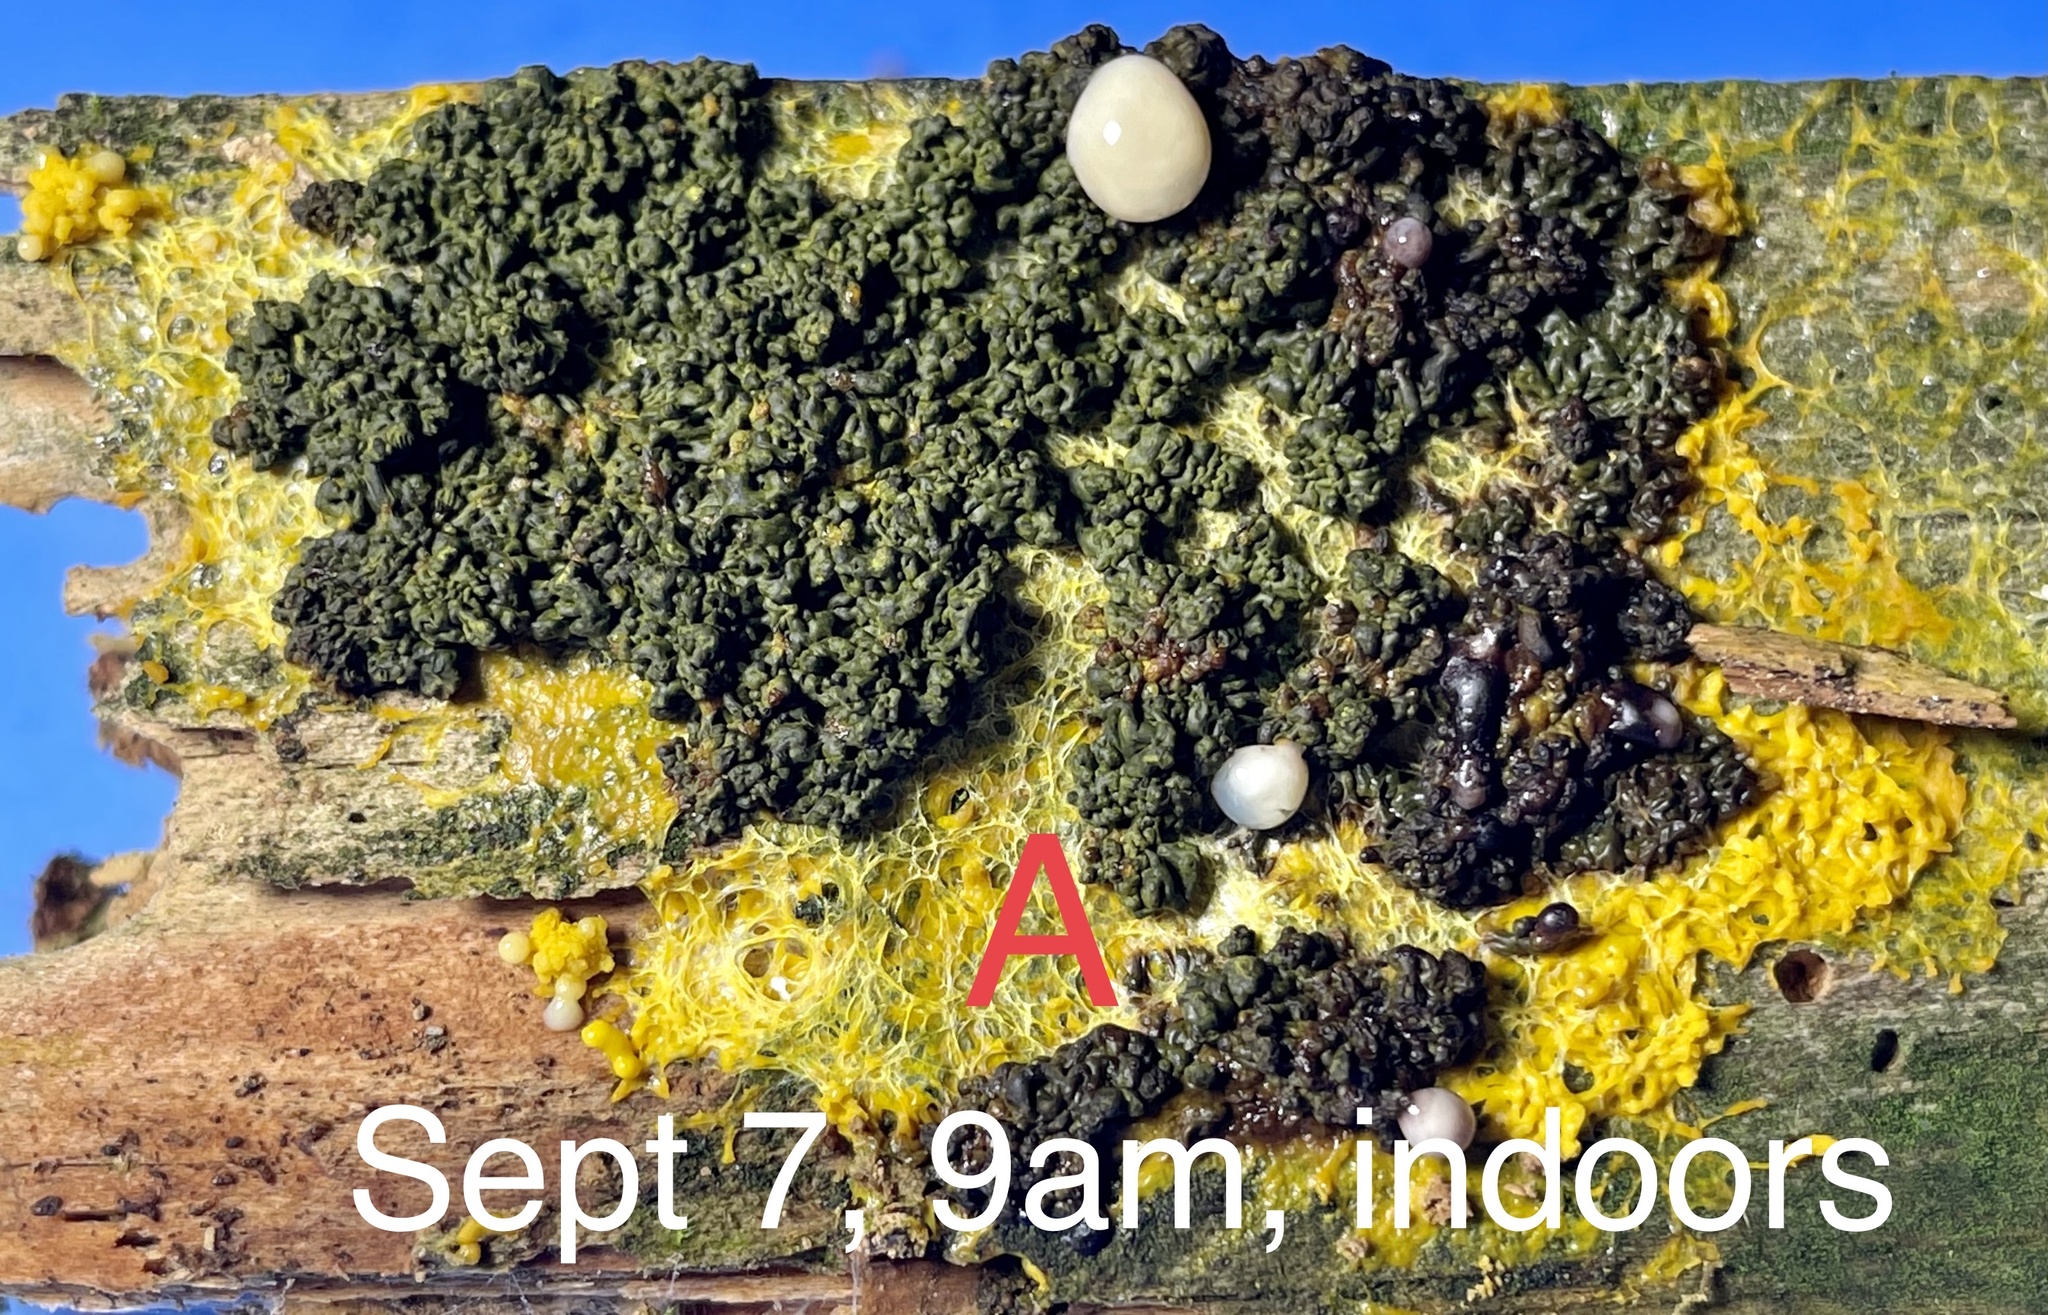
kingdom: Protozoa
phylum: Mycetozoa
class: Myxomycetes
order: Physarales
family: Physaraceae
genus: Fuligo
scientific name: Fuligo septica
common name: Dog vomit slime mold
